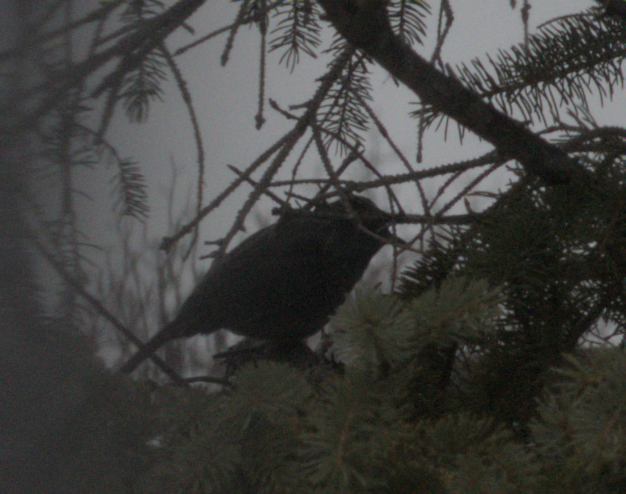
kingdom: Animalia
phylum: Chordata
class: Aves
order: Passeriformes
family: Mimidae
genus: Dumetella
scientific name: Dumetella carolinensis
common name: Gray catbird
